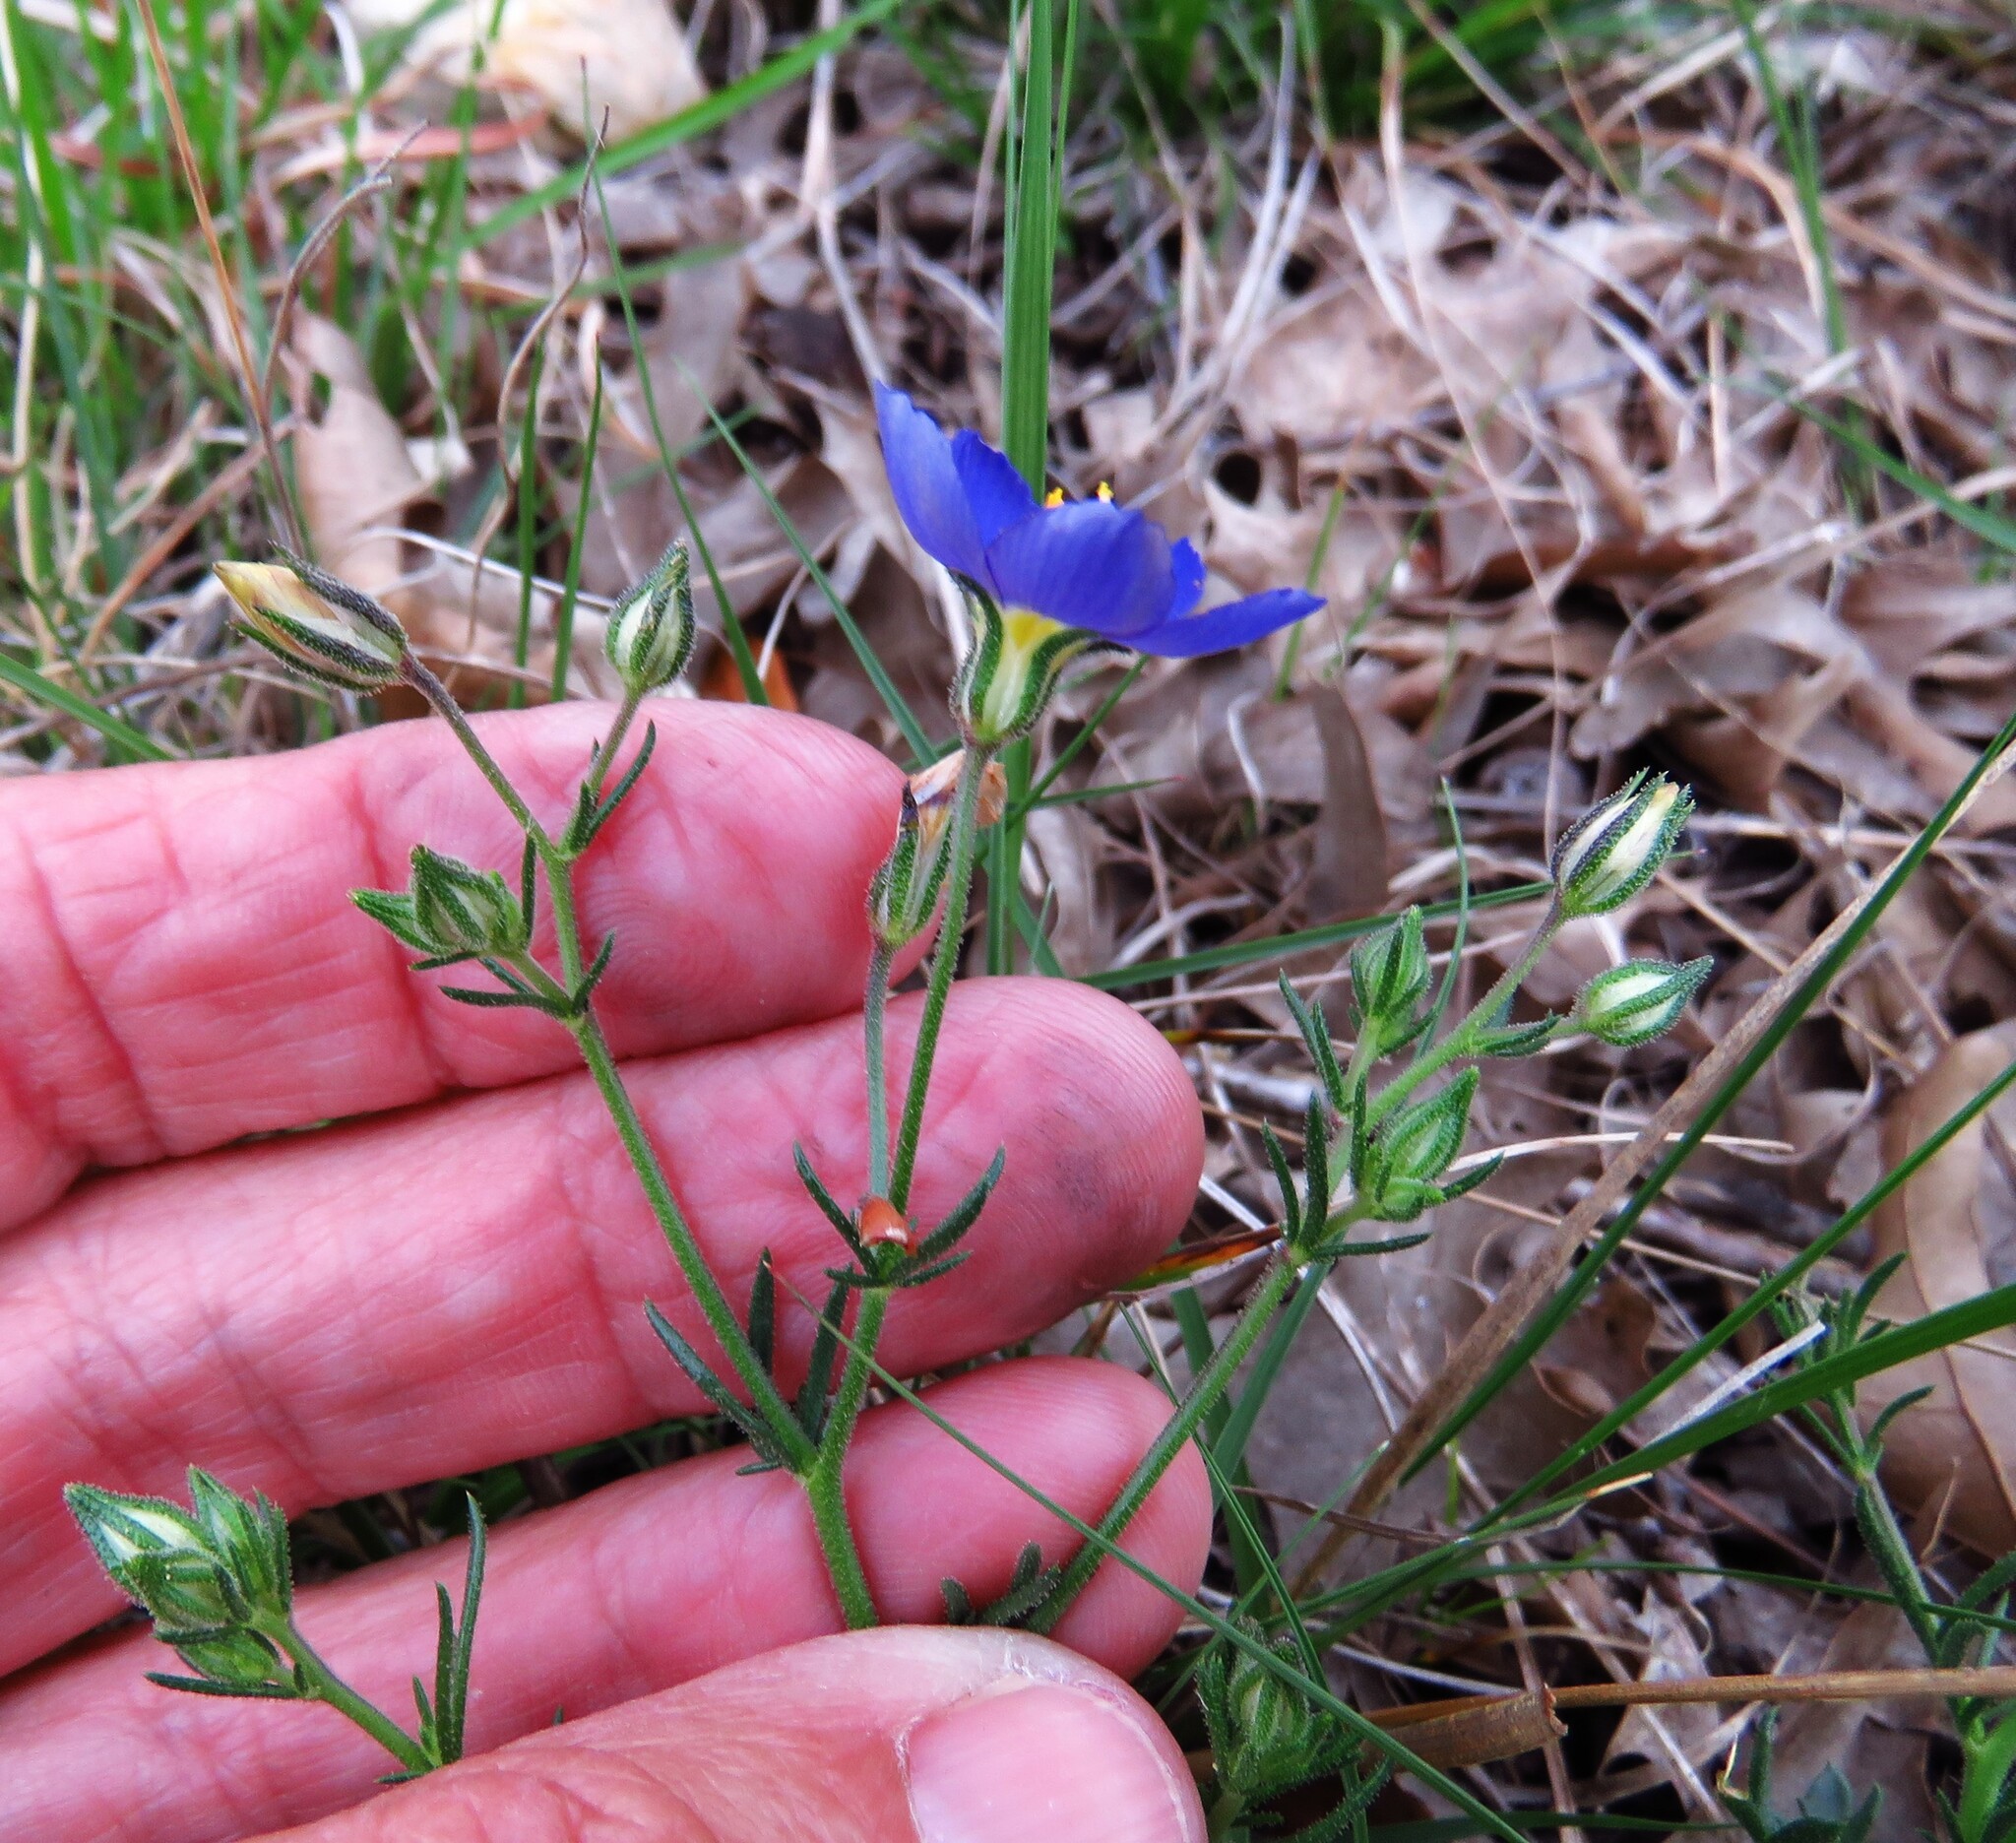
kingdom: Plantae
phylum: Tracheophyta
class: Magnoliopsida
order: Ericales
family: Polemoniaceae
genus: Giliastrum
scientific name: Giliastrum rigidulum
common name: Bluebowls
